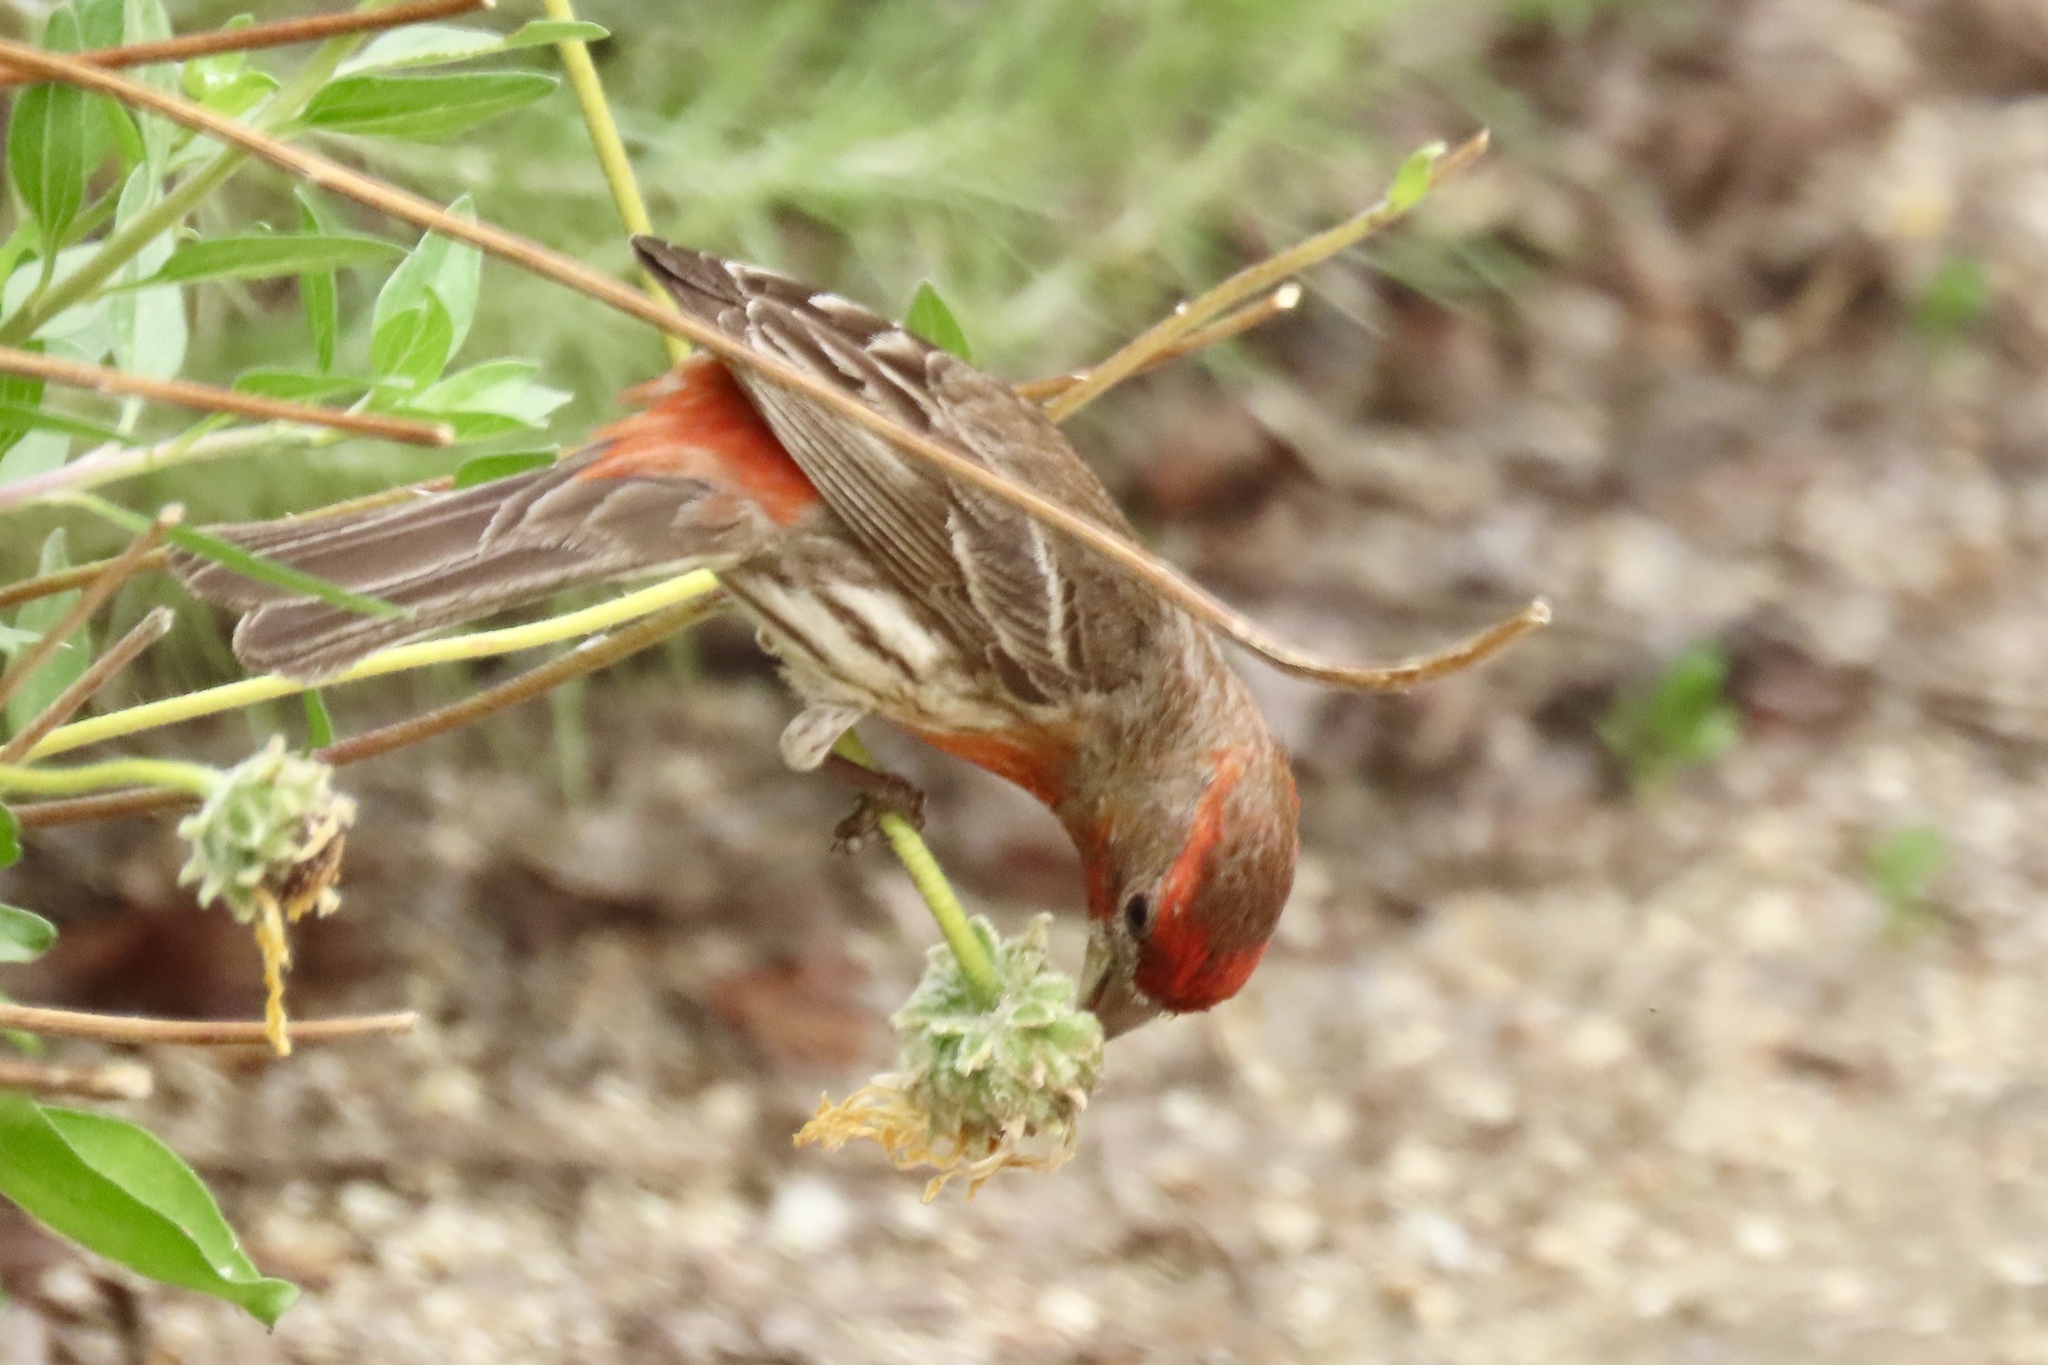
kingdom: Animalia
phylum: Chordata
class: Aves
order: Passeriformes
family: Fringillidae
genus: Haemorhous
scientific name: Haemorhous mexicanus
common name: House finch
